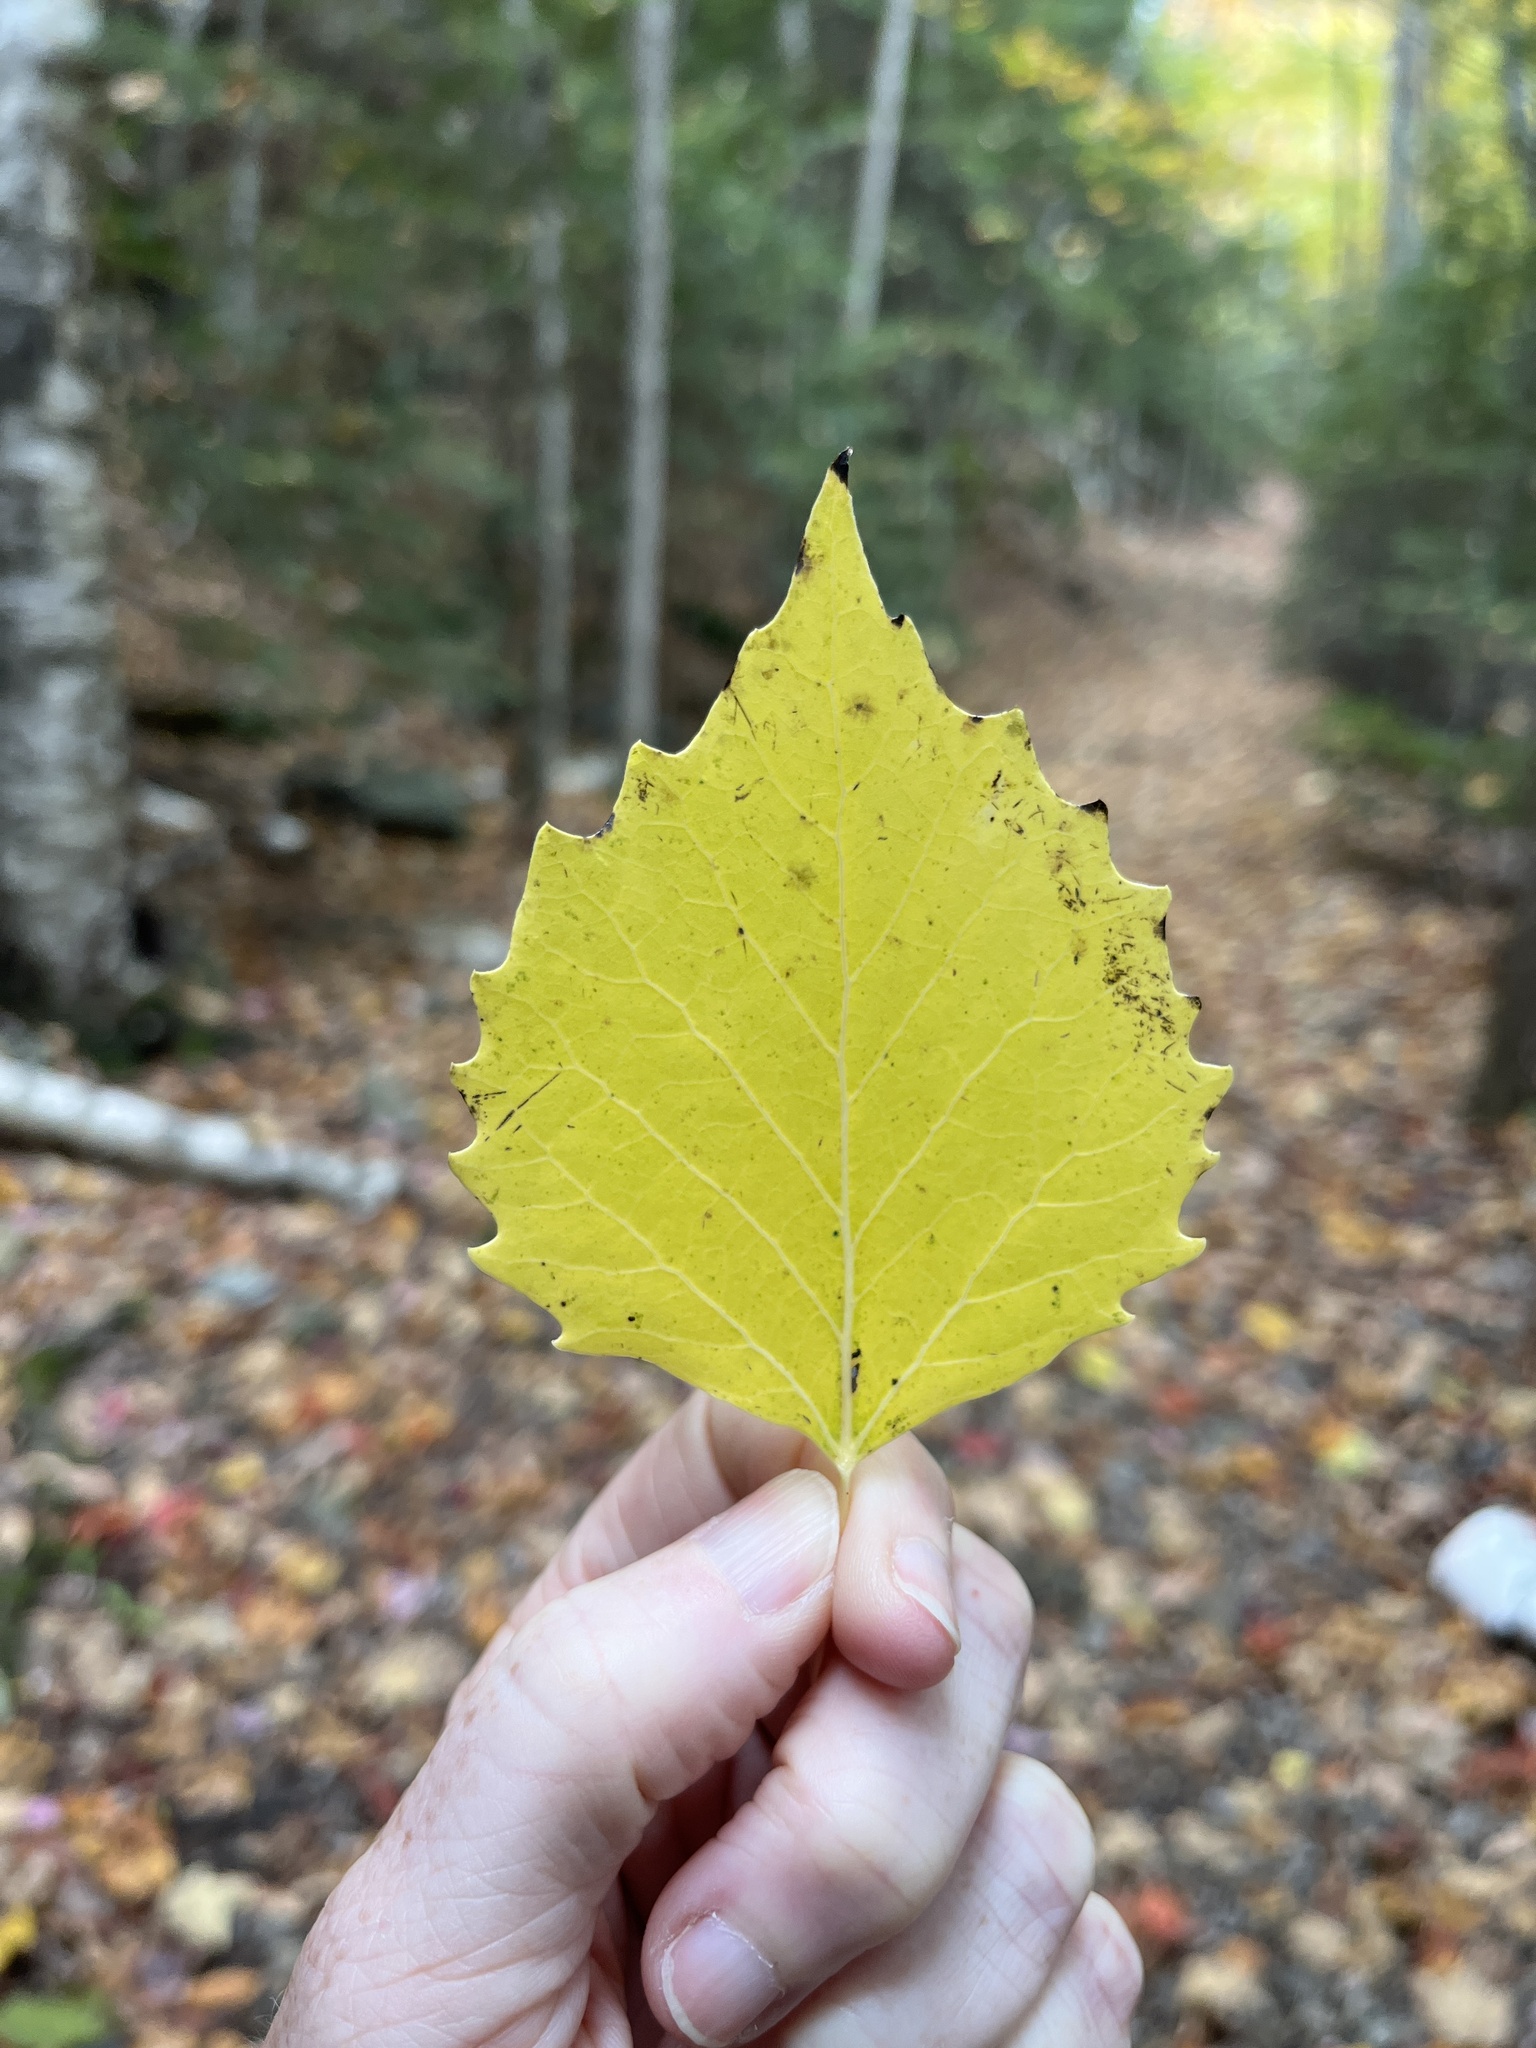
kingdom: Plantae
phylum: Tracheophyta
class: Magnoliopsida
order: Malpighiales
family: Salicaceae
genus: Populus
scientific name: Populus grandidentata
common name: Bigtooth aspen
